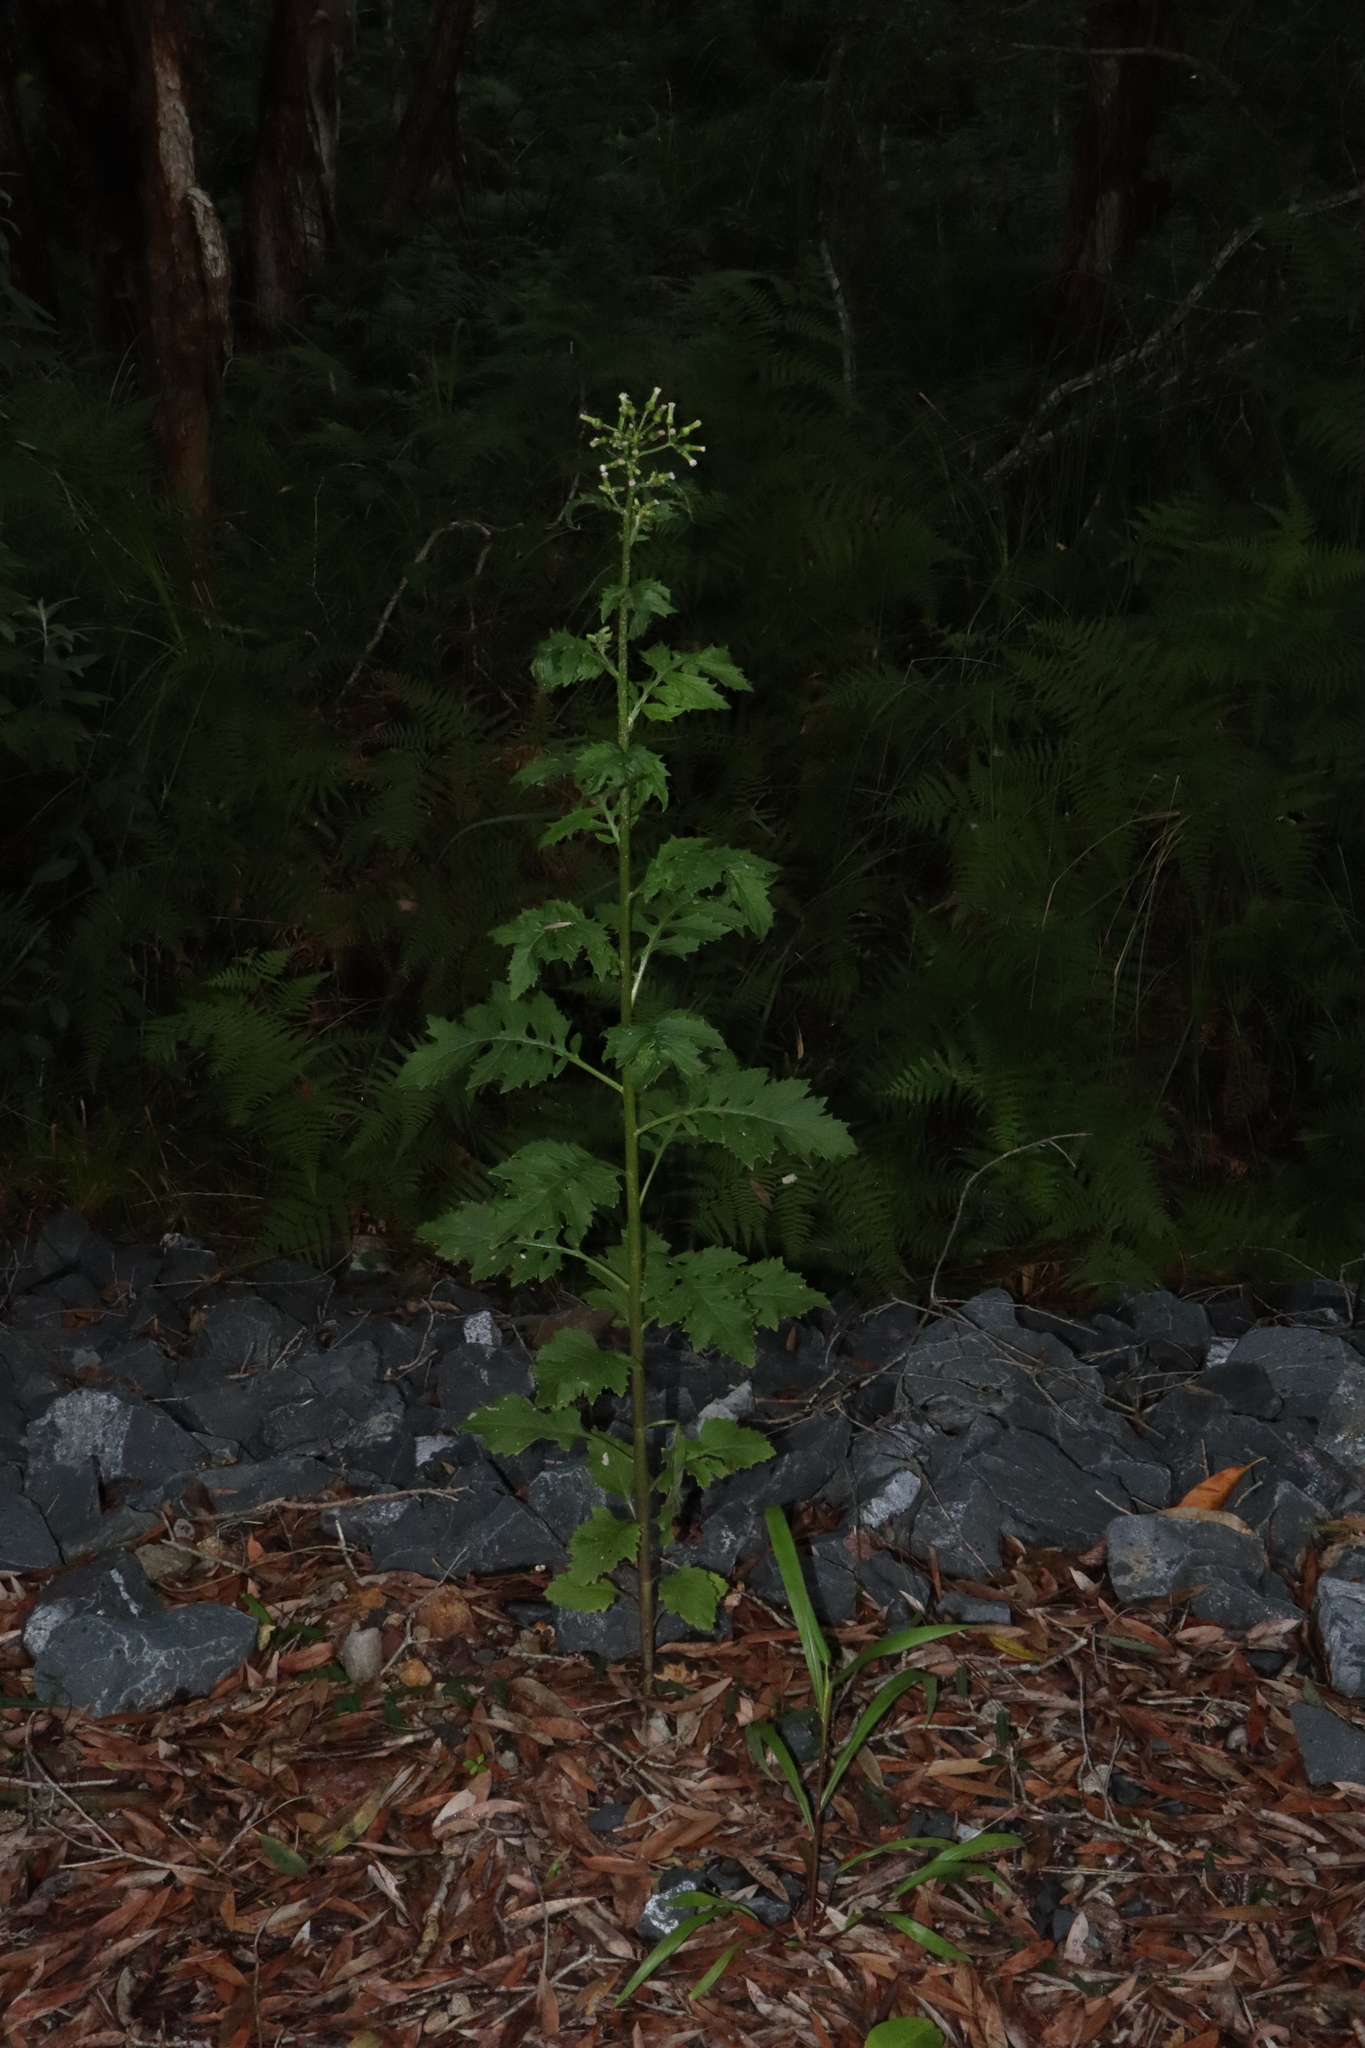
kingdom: Plantae
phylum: Tracheophyta
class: Magnoliopsida
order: Asterales
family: Asteraceae
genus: Erechtites
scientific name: Erechtites valerianifolius
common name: Tropical burnweed
